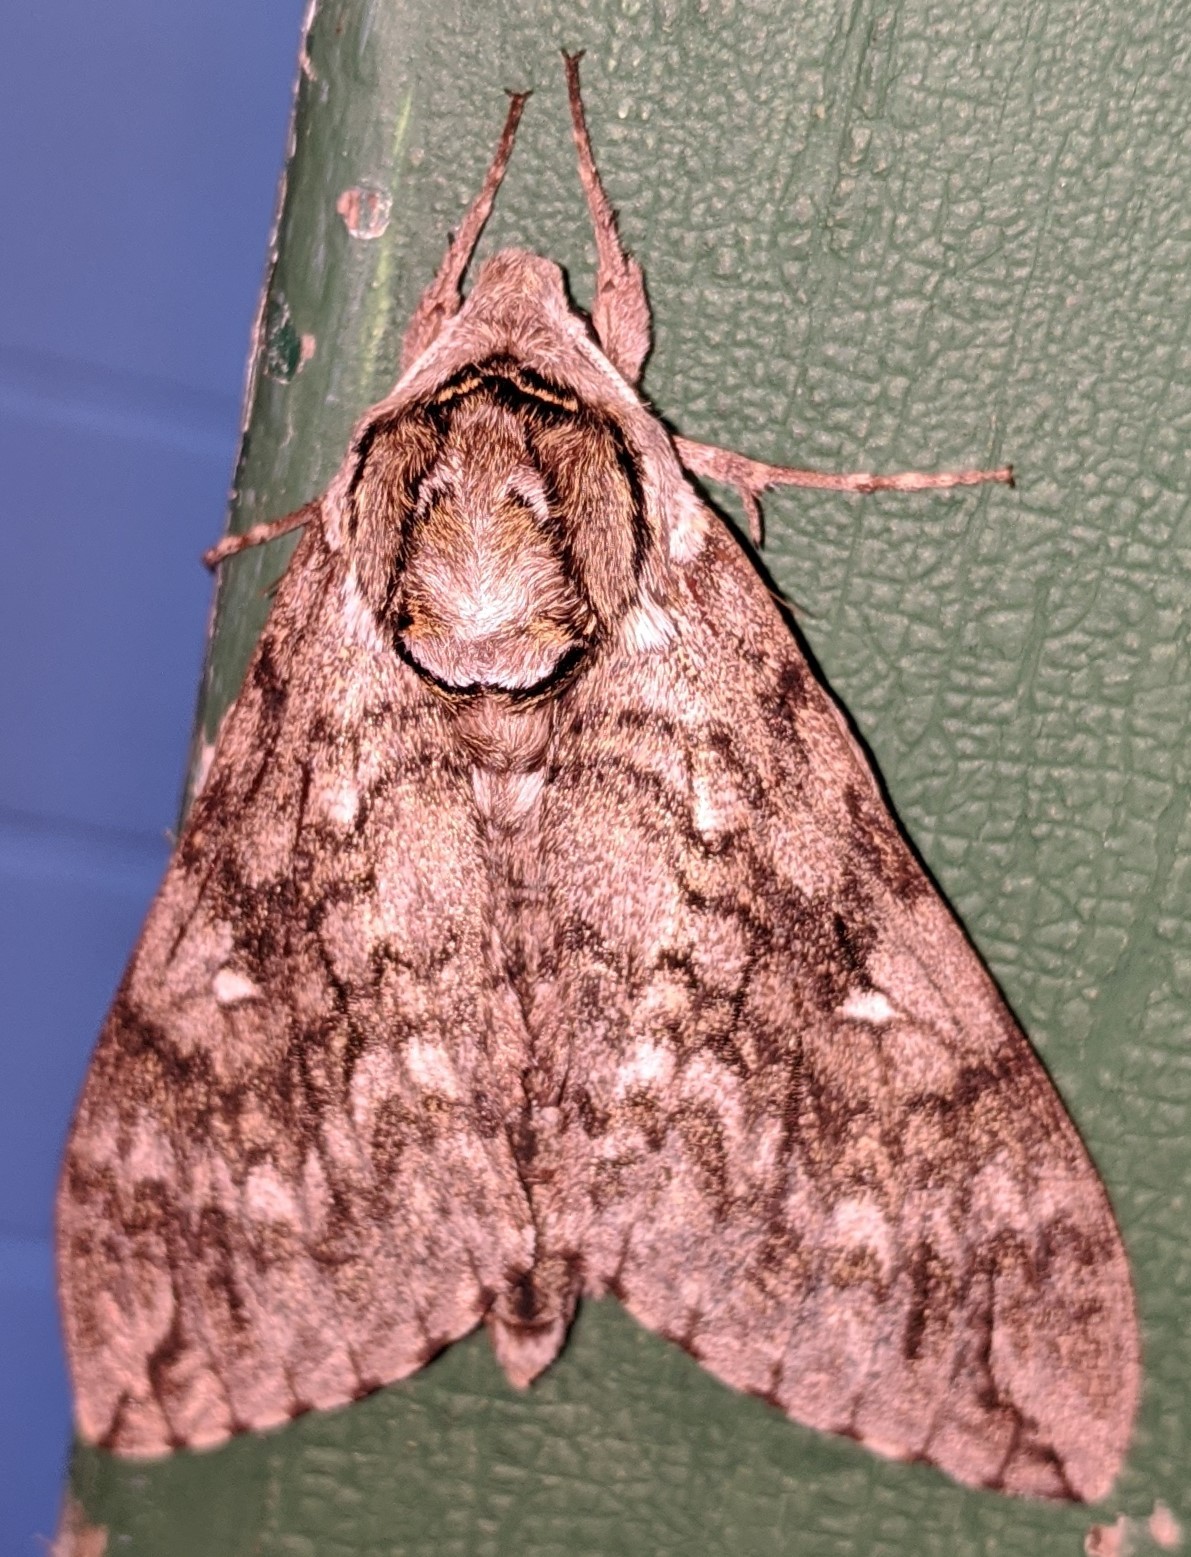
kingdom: Animalia
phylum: Arthropoda
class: Insecta
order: Lepidoptera
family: Sphingidae
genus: Ceratomia
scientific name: Ceratomia undulosa
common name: Waved sphinx
